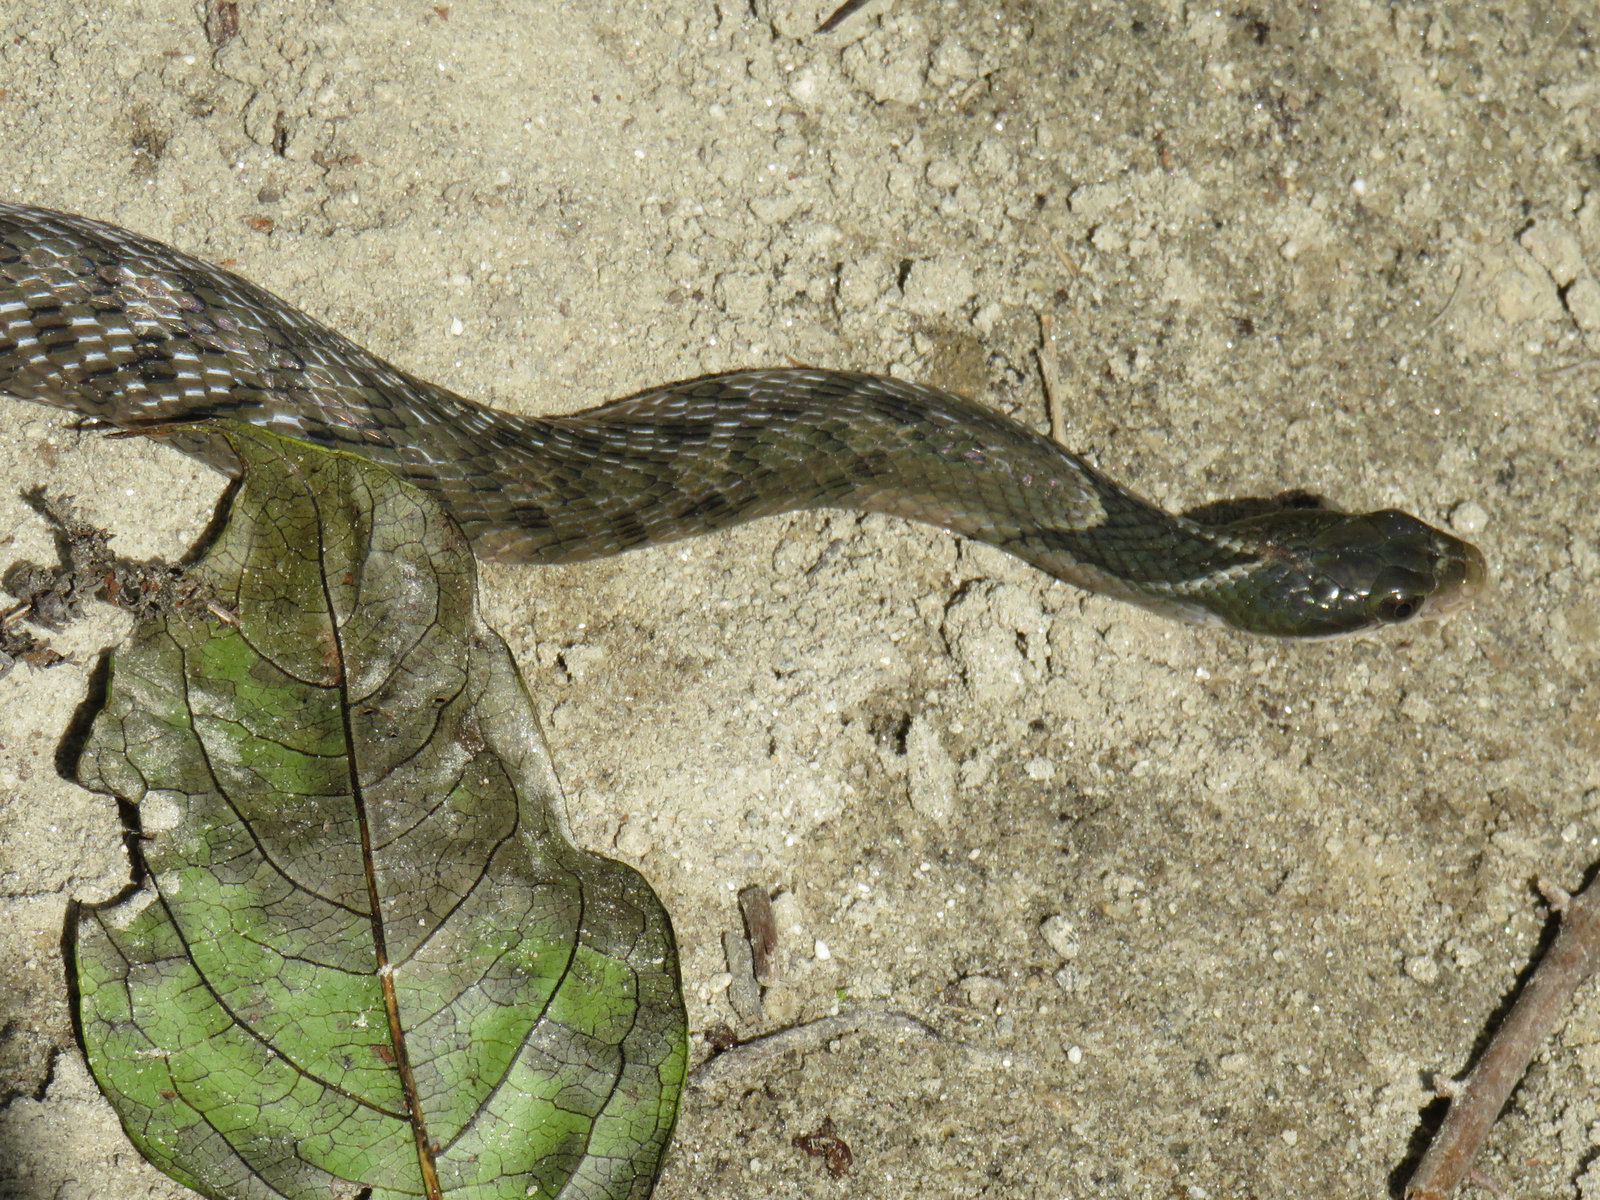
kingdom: Animalia
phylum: Chordata
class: Squamata
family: Colubridae
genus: Pseudoxenodon
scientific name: Pseudoxenodon macrops
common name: Big-eyed mountain keelback
